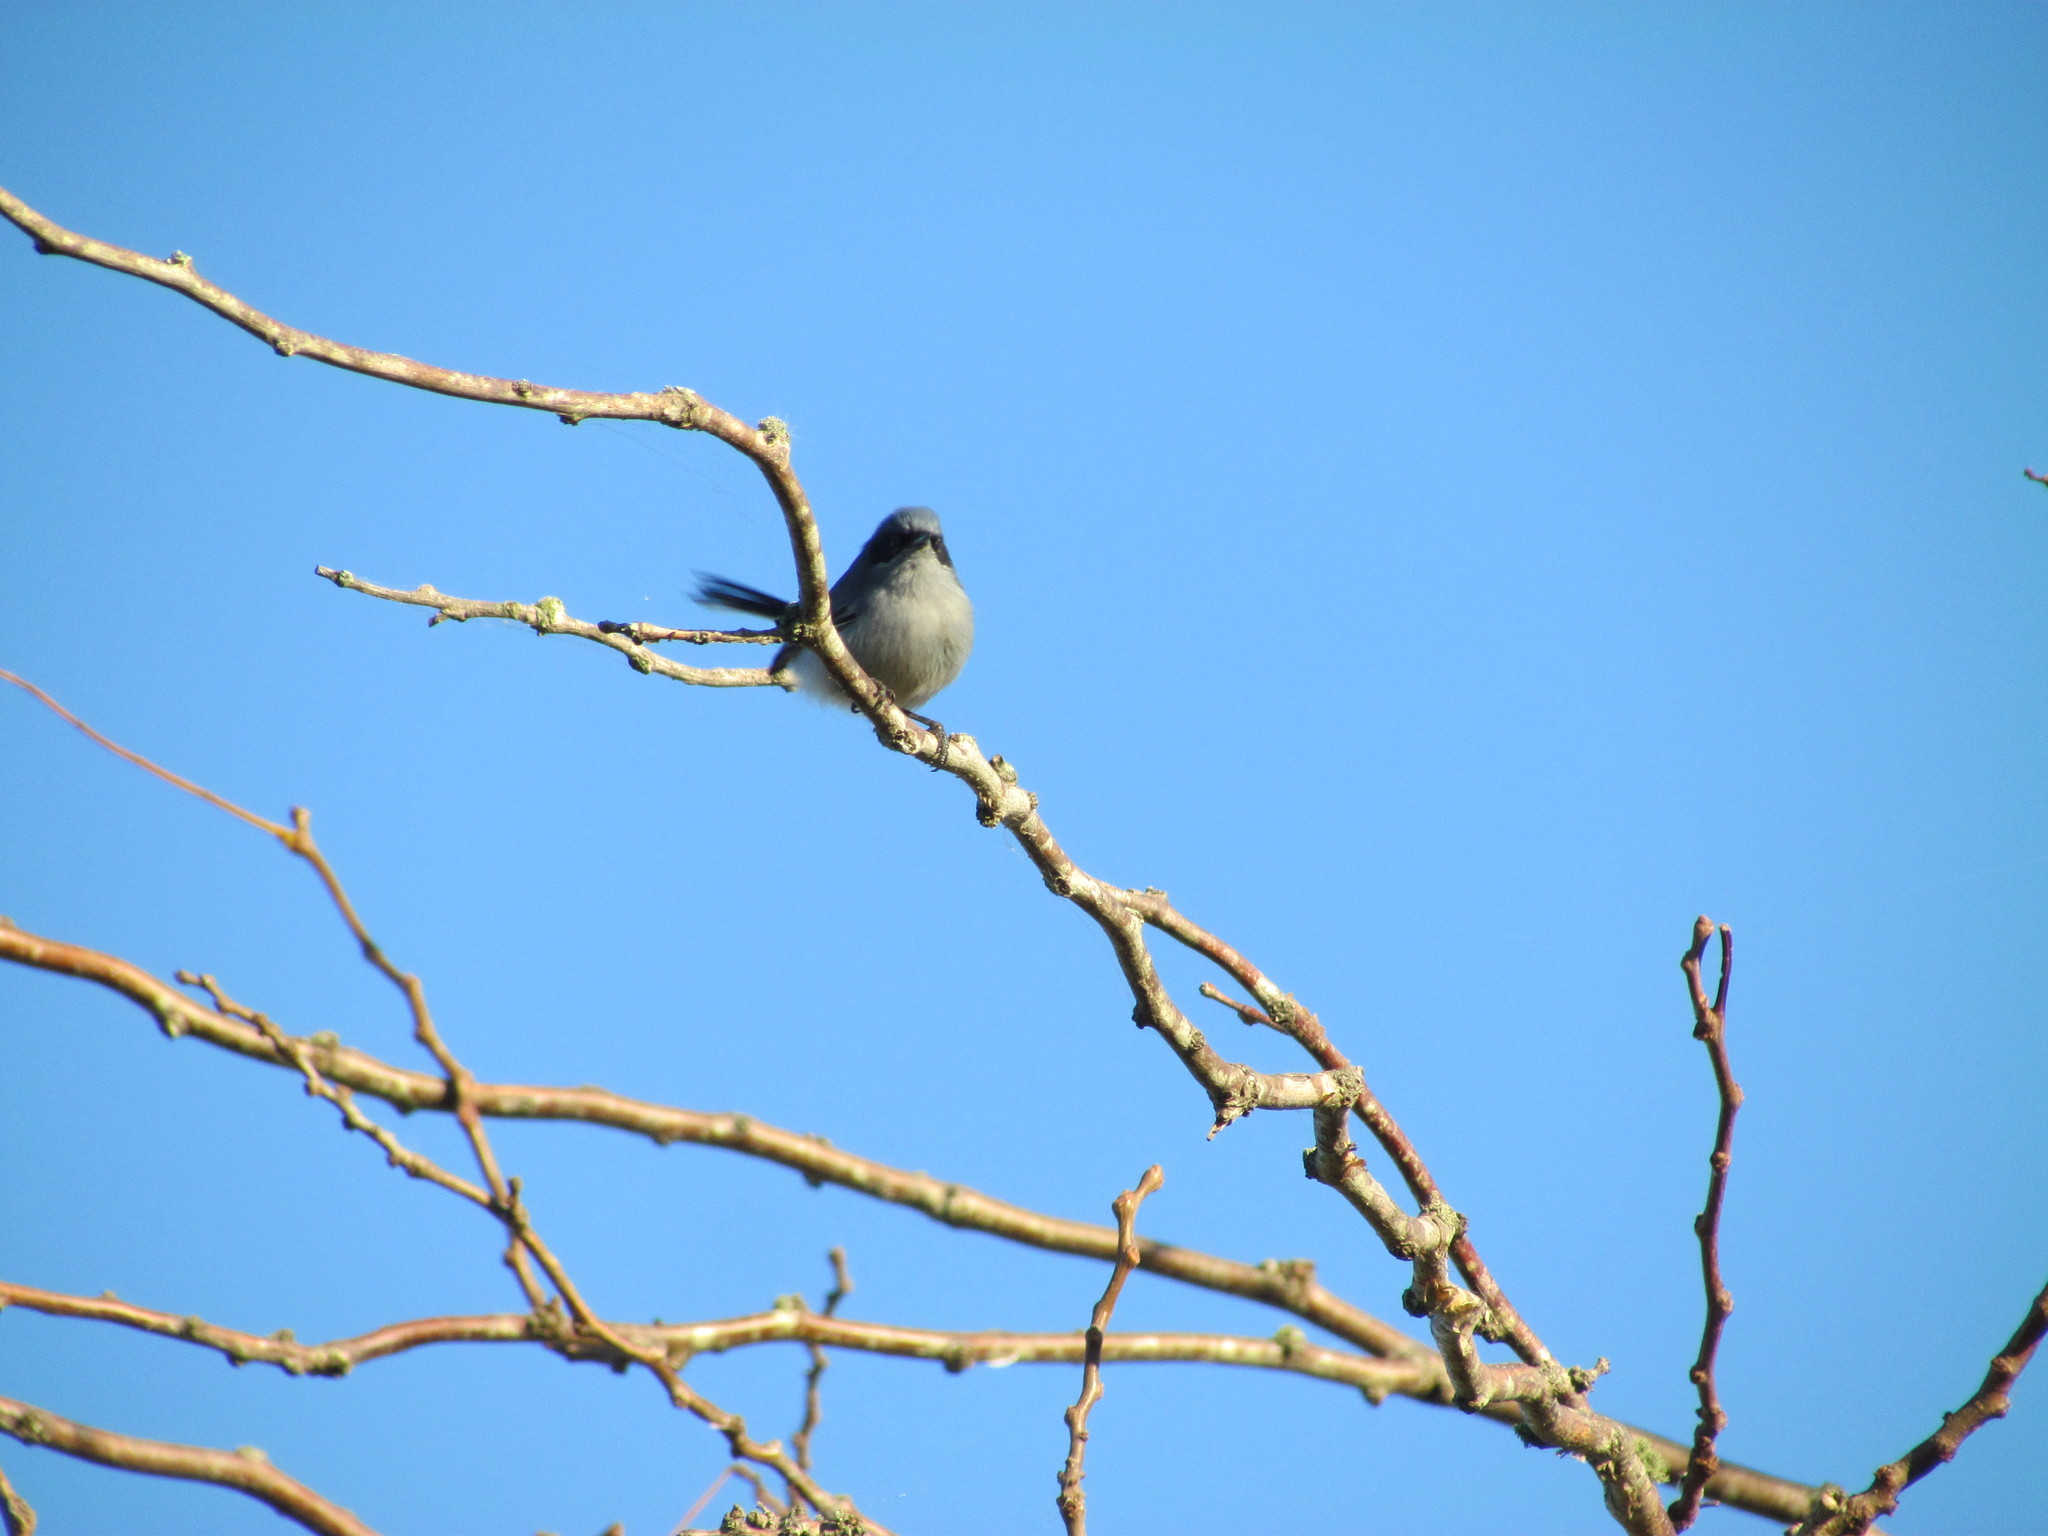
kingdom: Animalia
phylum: Chordata
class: Aves
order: Passeriformes
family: Polioptilidae
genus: Polioptila
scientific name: Polioptila dumicola
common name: Masked gnatcatcher
